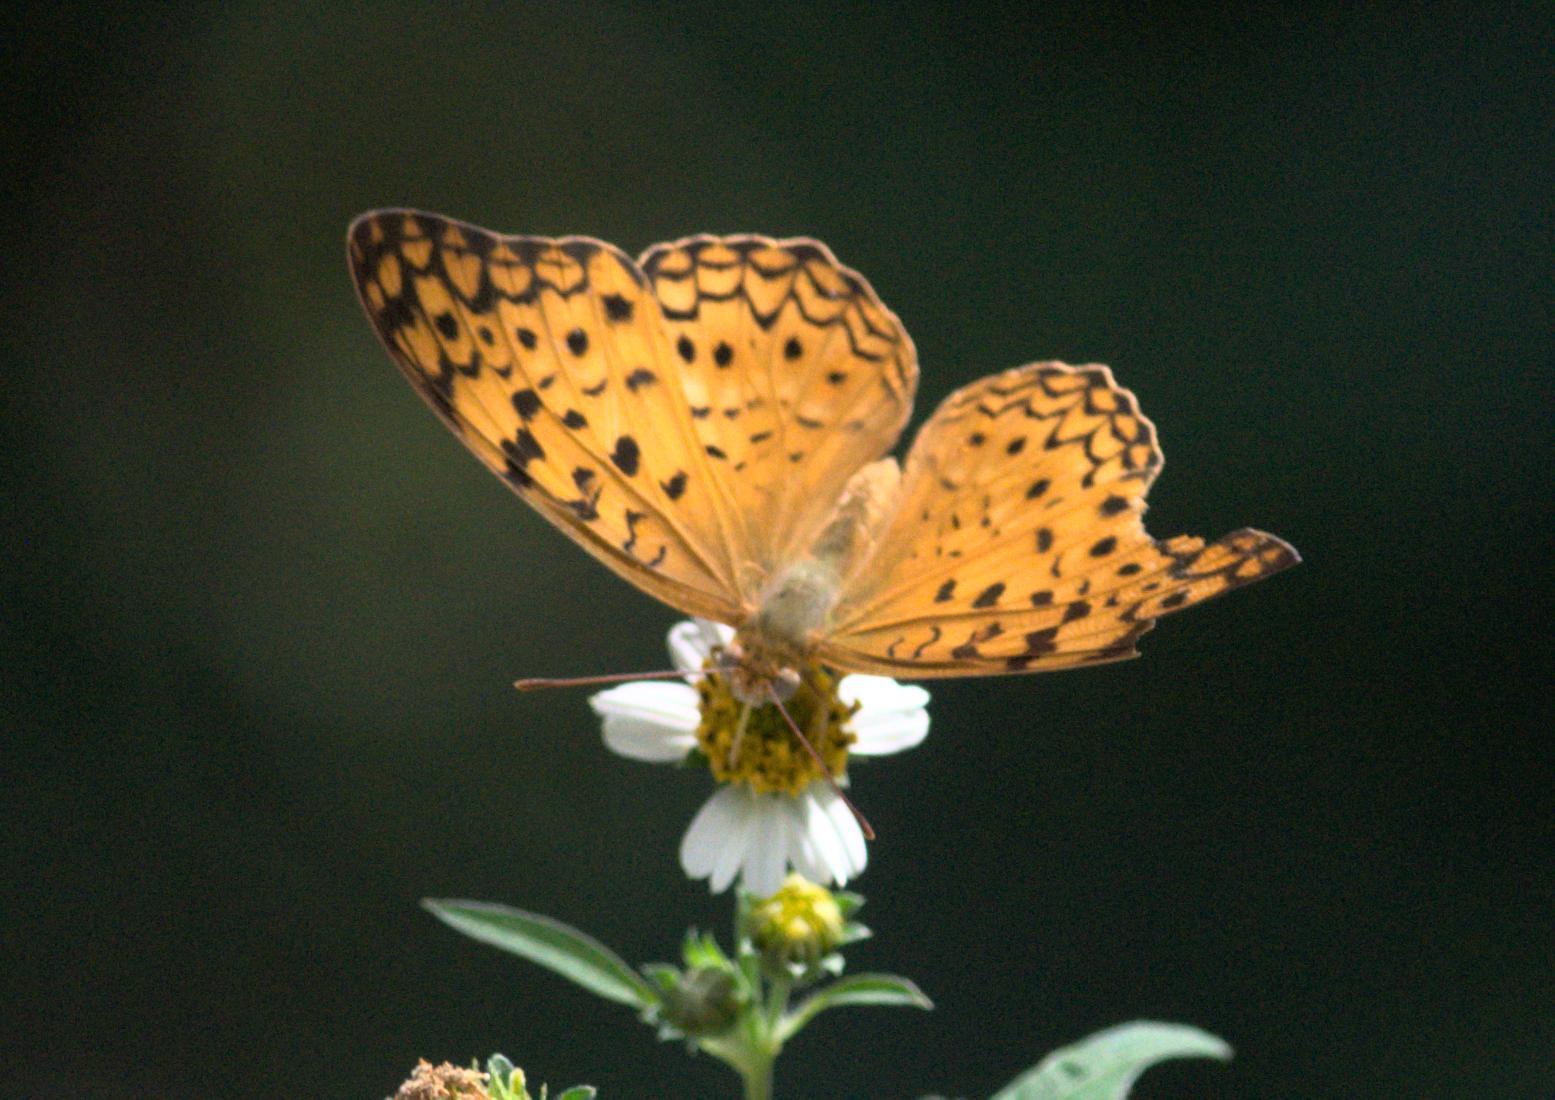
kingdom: Animalia
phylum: Arthropoda
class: Insecta
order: Lepidoptera
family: Nymphalidae
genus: Phalanta
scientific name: Phalanta phalantha
